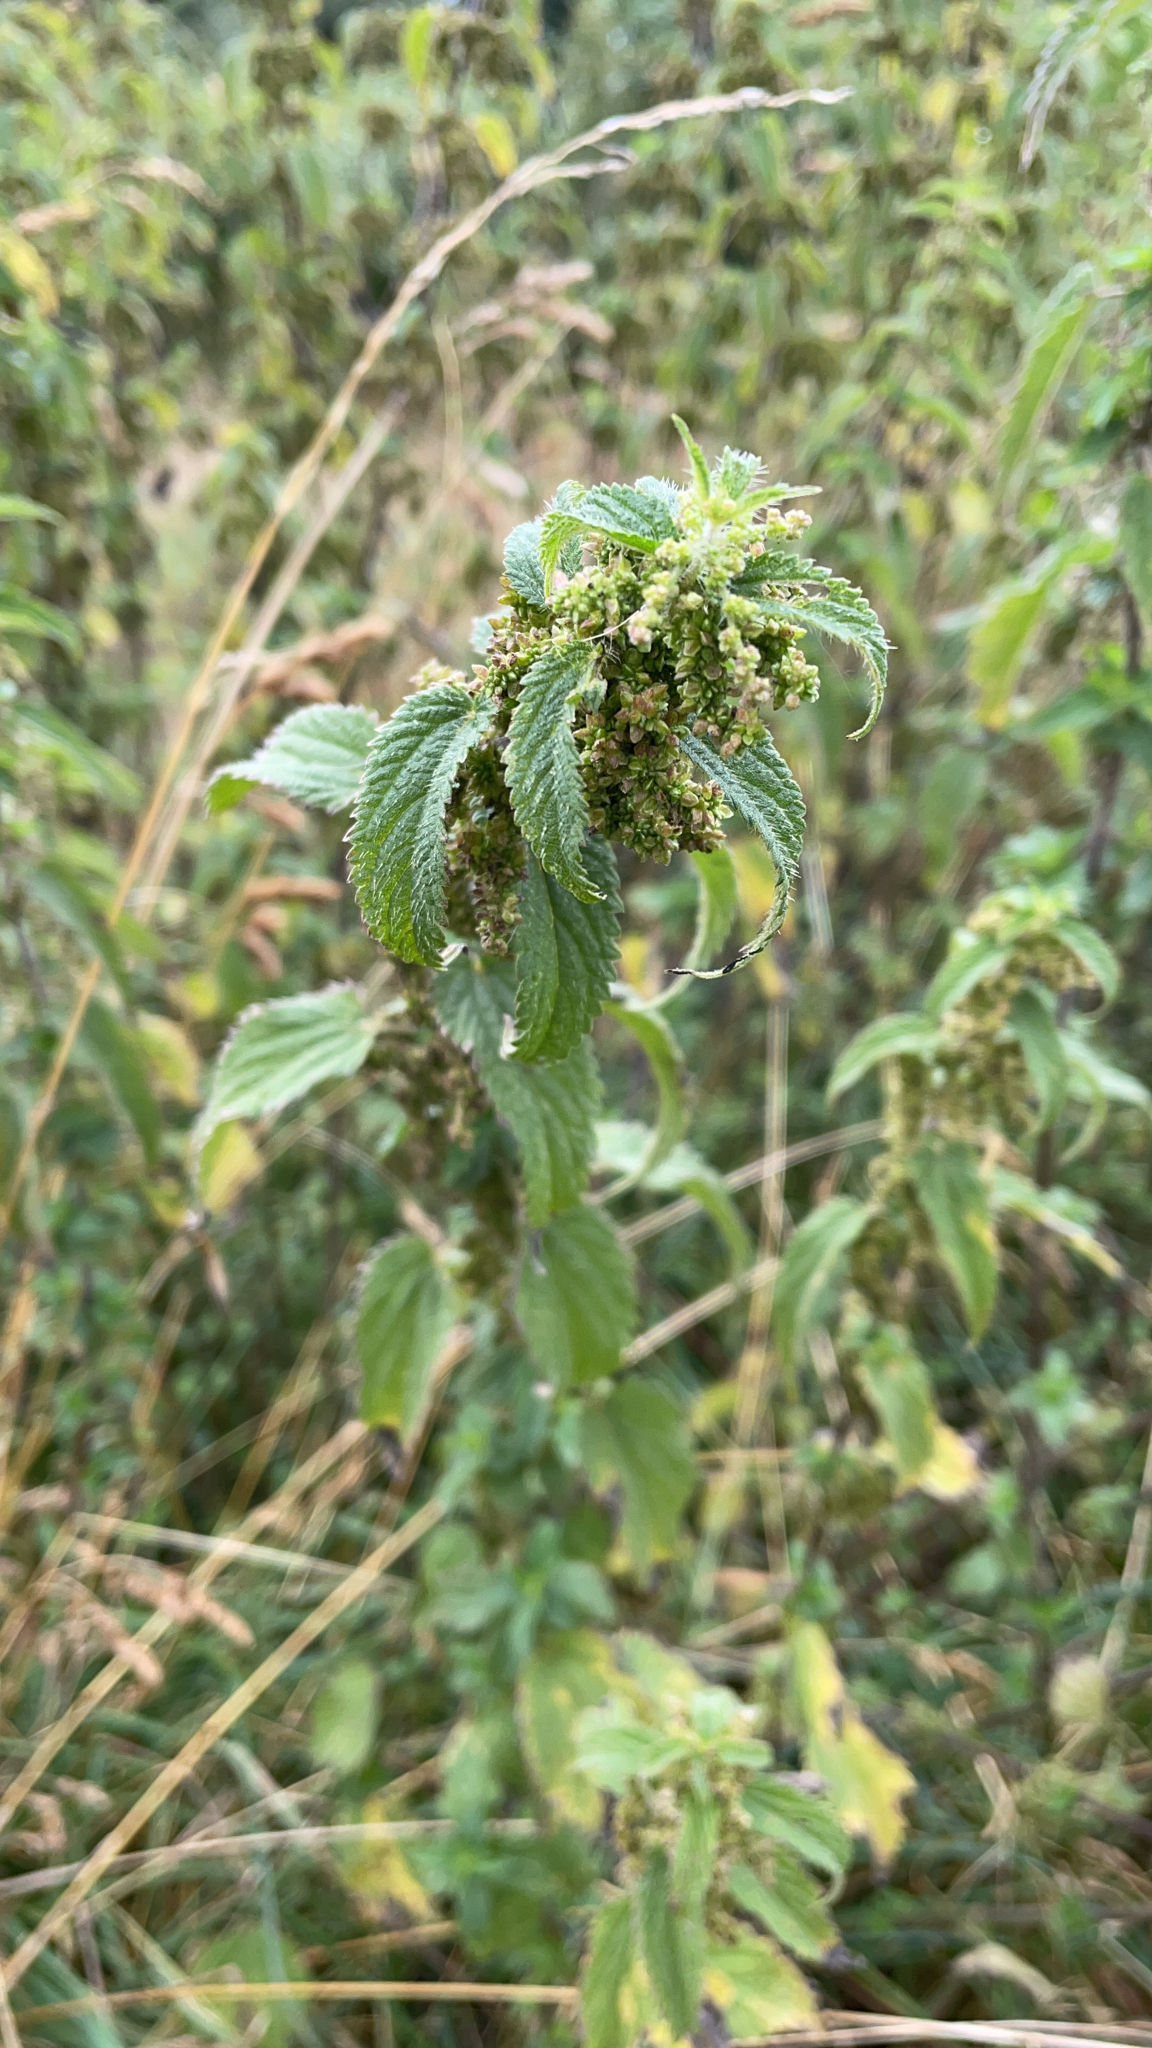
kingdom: Plantae
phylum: Tracheophyta
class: Magnoliopsida
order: Rosales
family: Urticaceae
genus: Urtica
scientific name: Urtica dioica
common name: Common nettle
